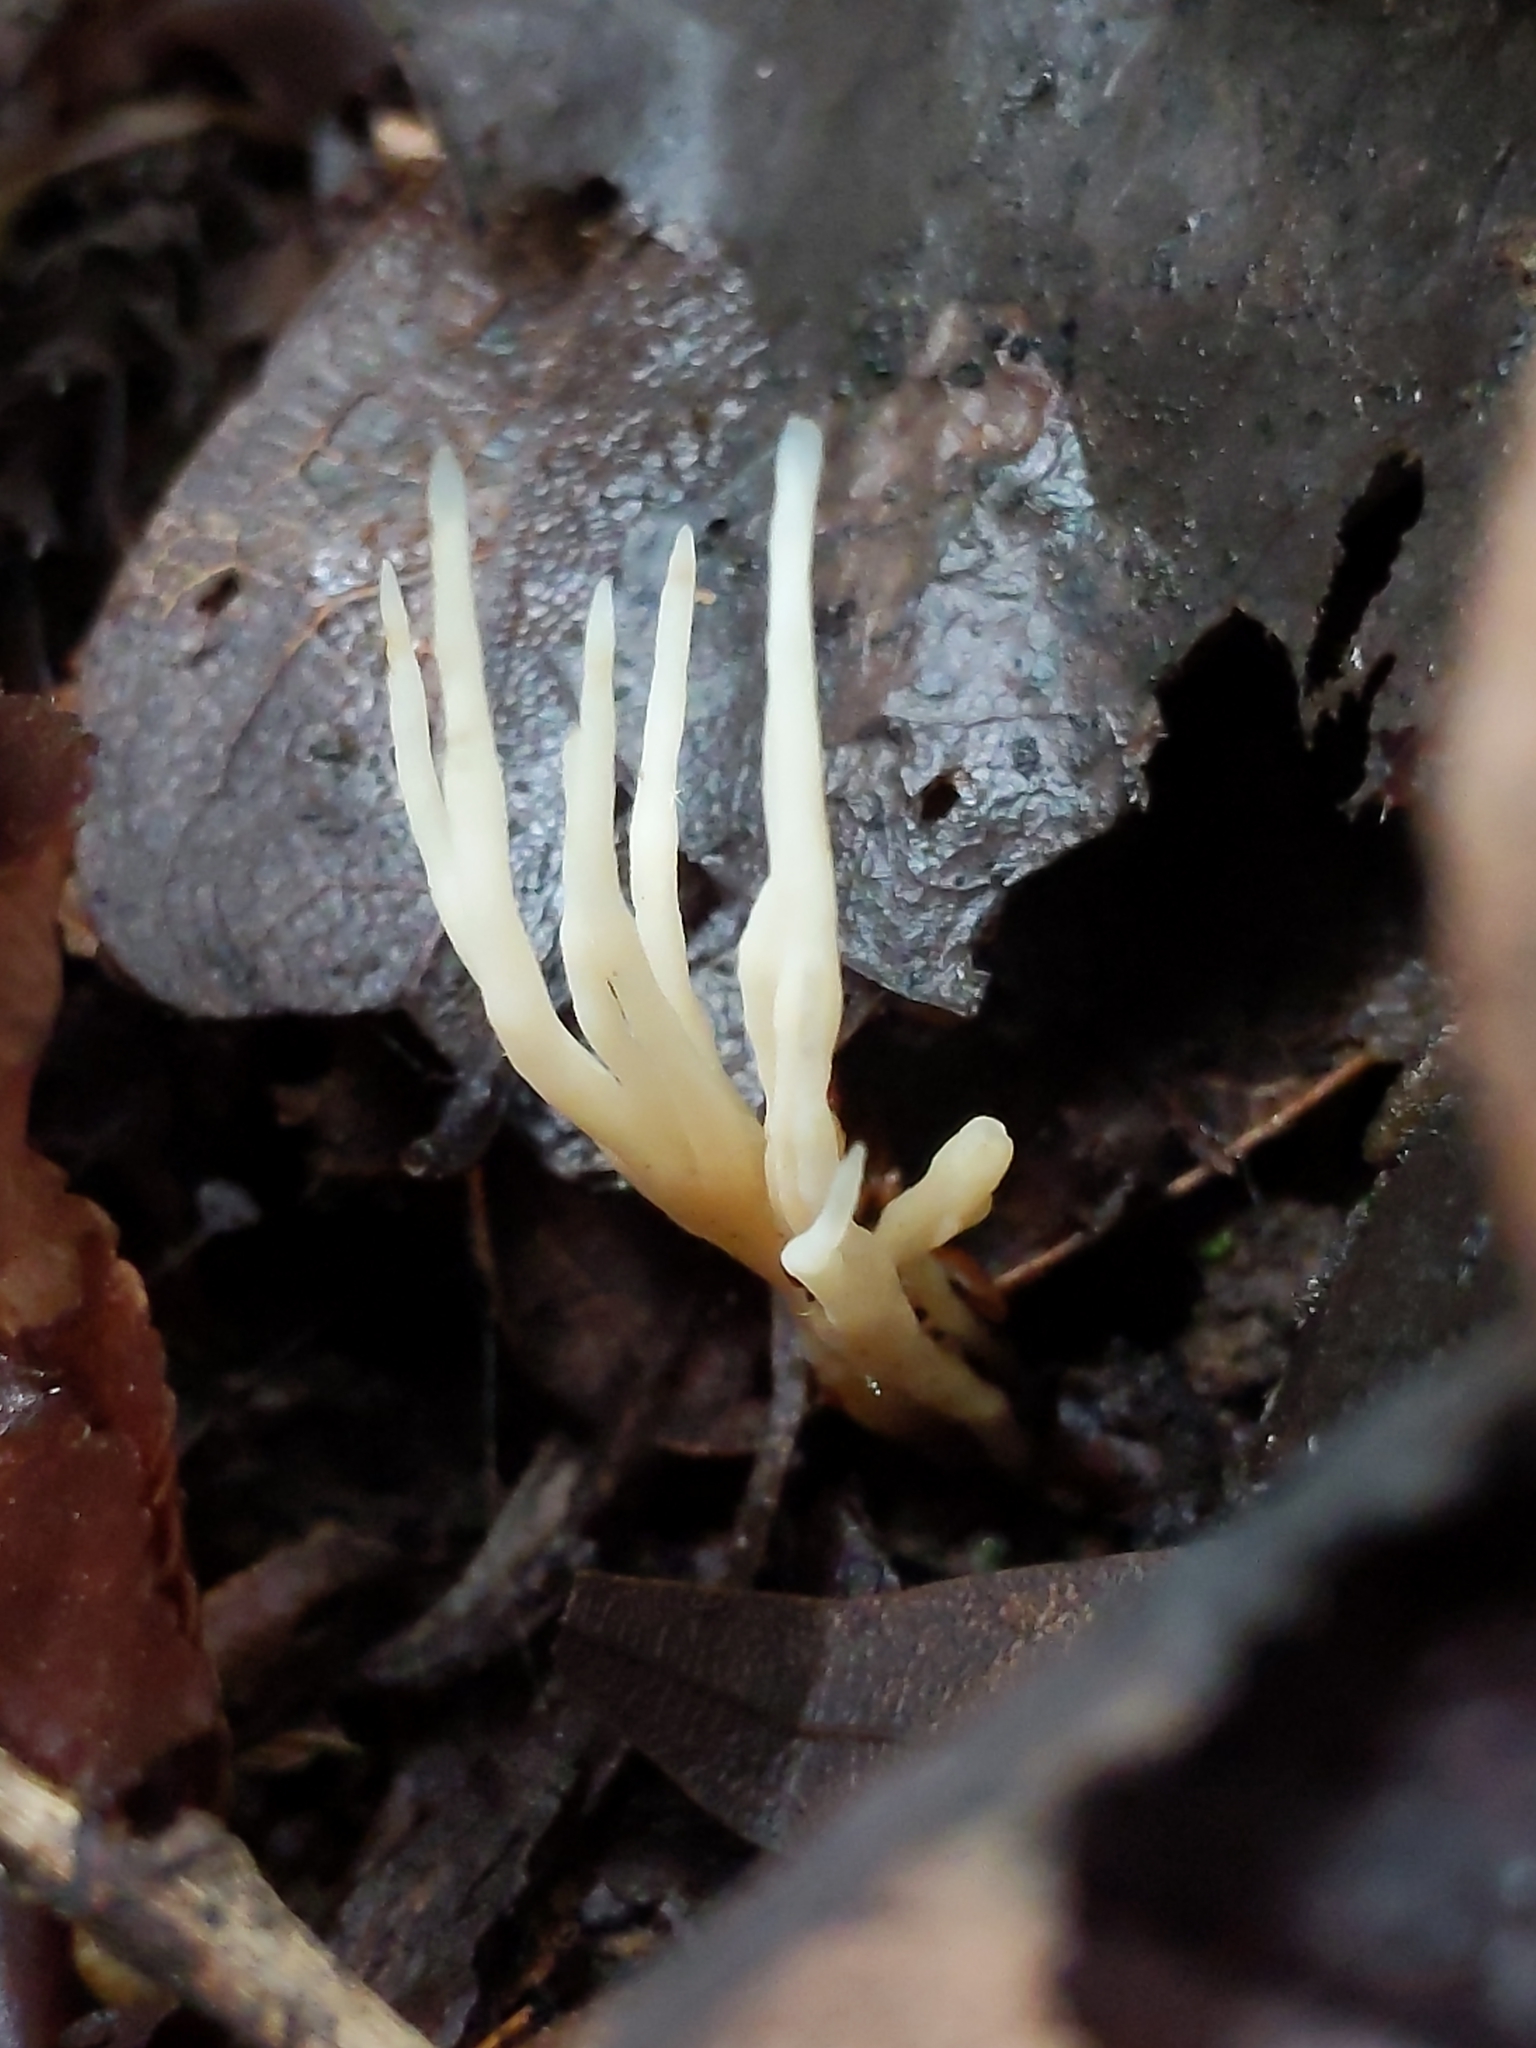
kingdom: Fungi
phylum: Basidiomycota
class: Agaricomycetes
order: Tremellodendropsidales
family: Tremellodendropsidaceae
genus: Tremellodendropsis
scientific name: Tremellodendropsis tuberosa
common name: Ashen coral
